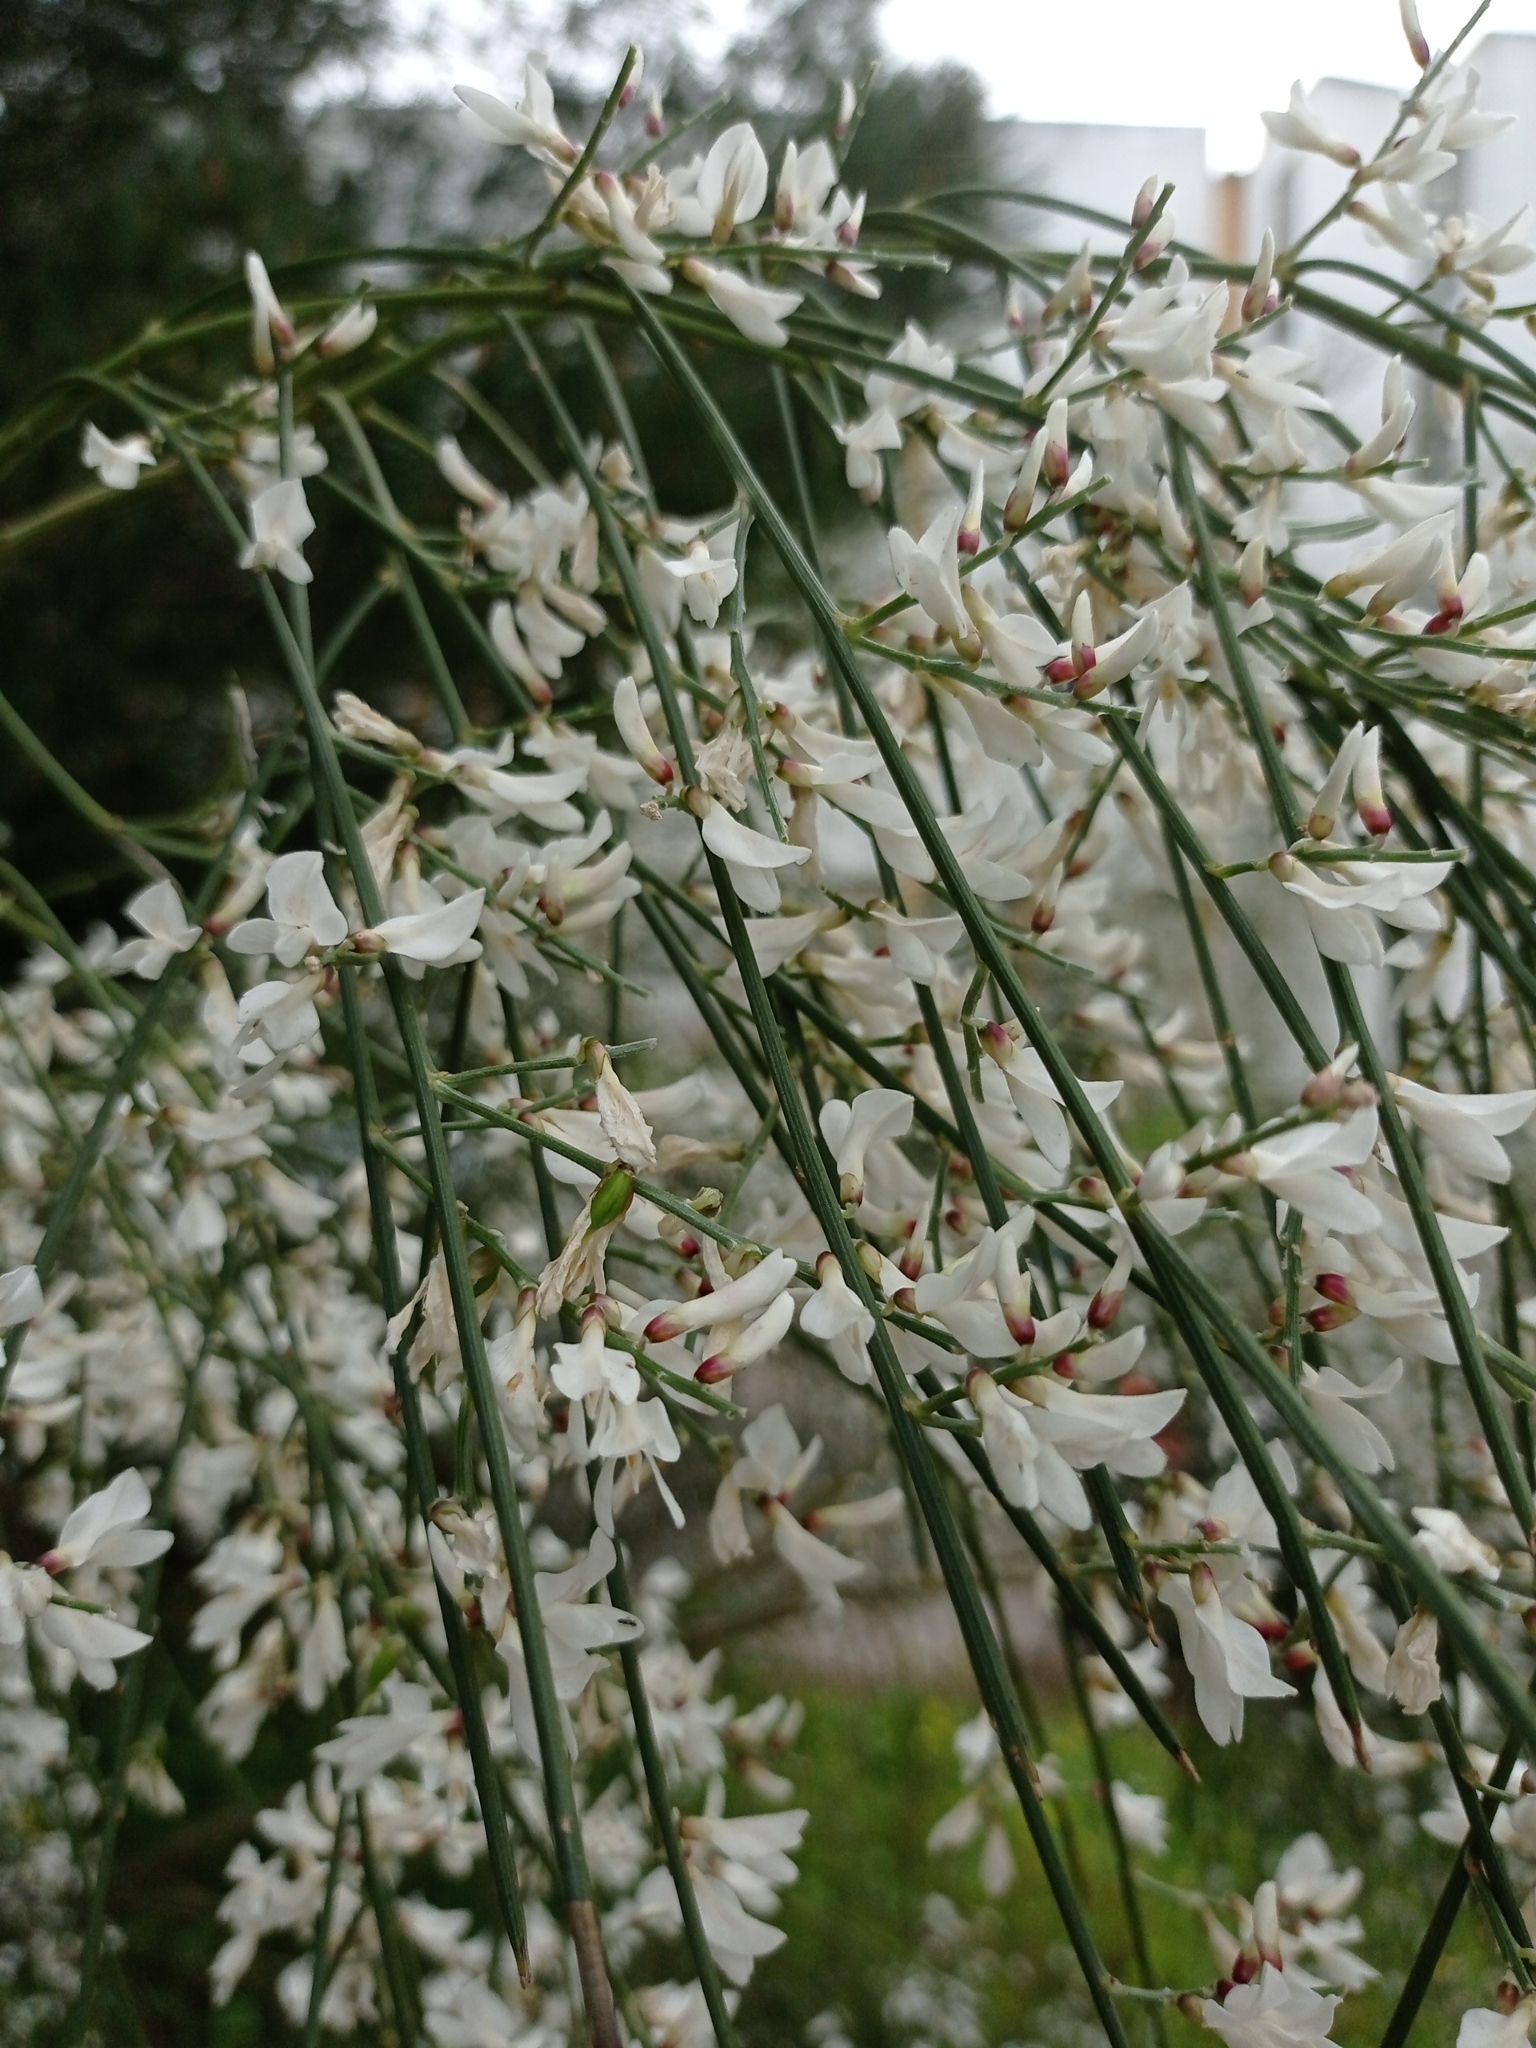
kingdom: Plantae
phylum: Tracheophyta
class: Magnoliopsida
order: Fabales
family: Fabaceae
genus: Retama
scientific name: Retama monosperma
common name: Bridal broom
